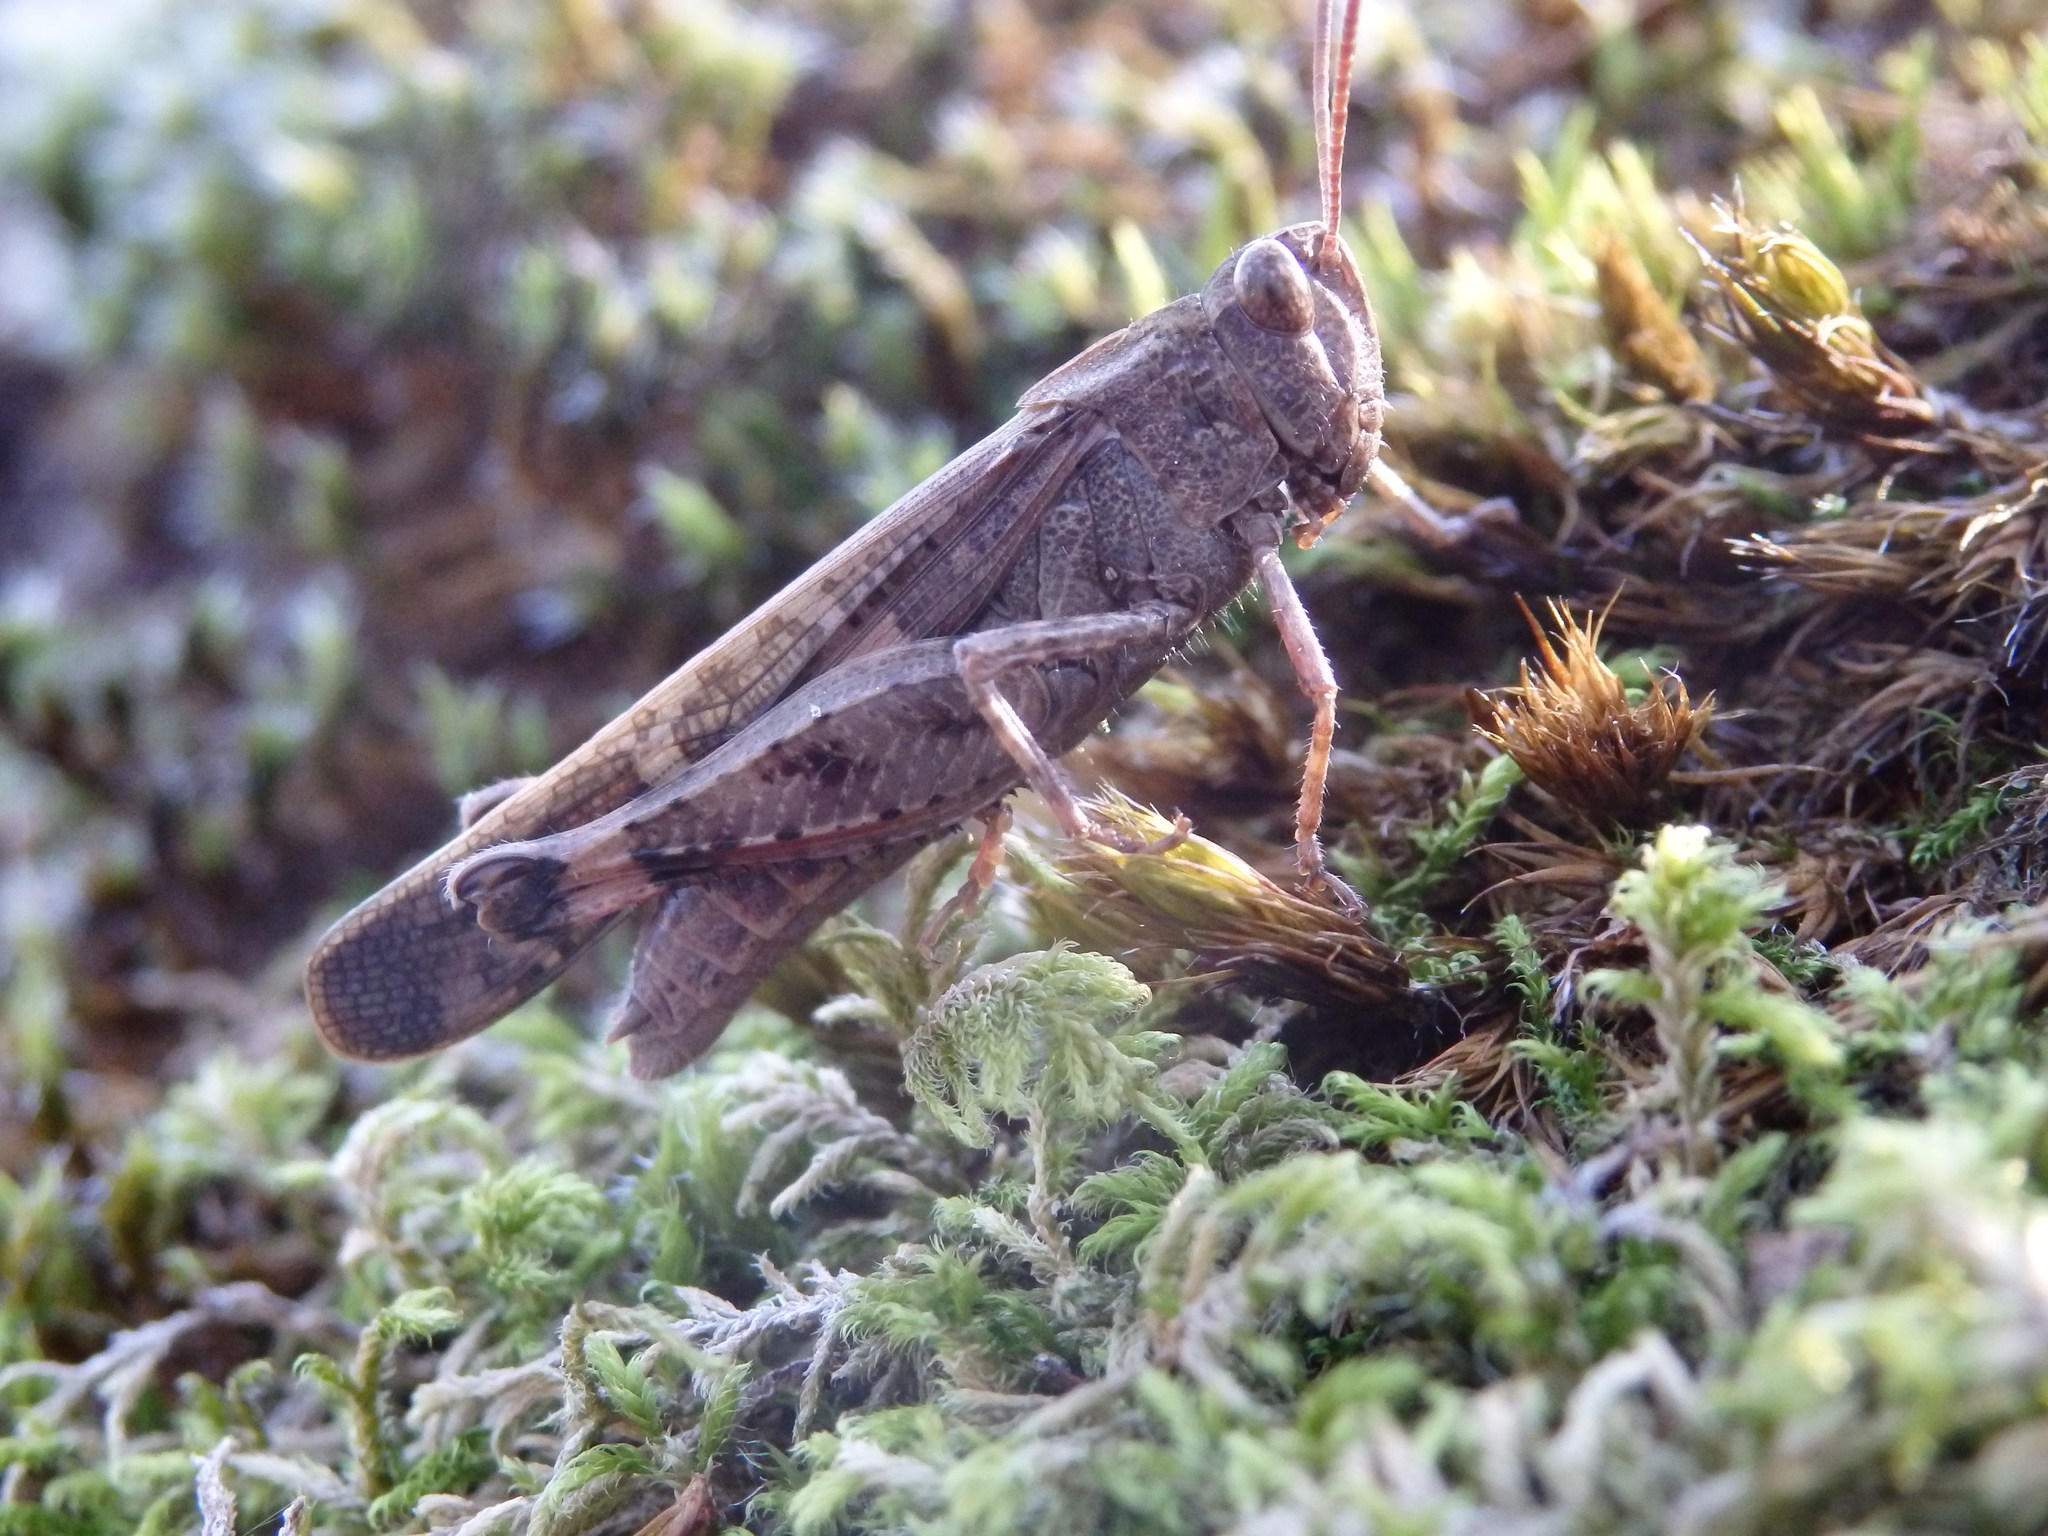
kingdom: Animalia
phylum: Arthropoda
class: Insecta
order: Orthoptera
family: Acrididae
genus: Aiolopus
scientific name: Aiolopus strepens
